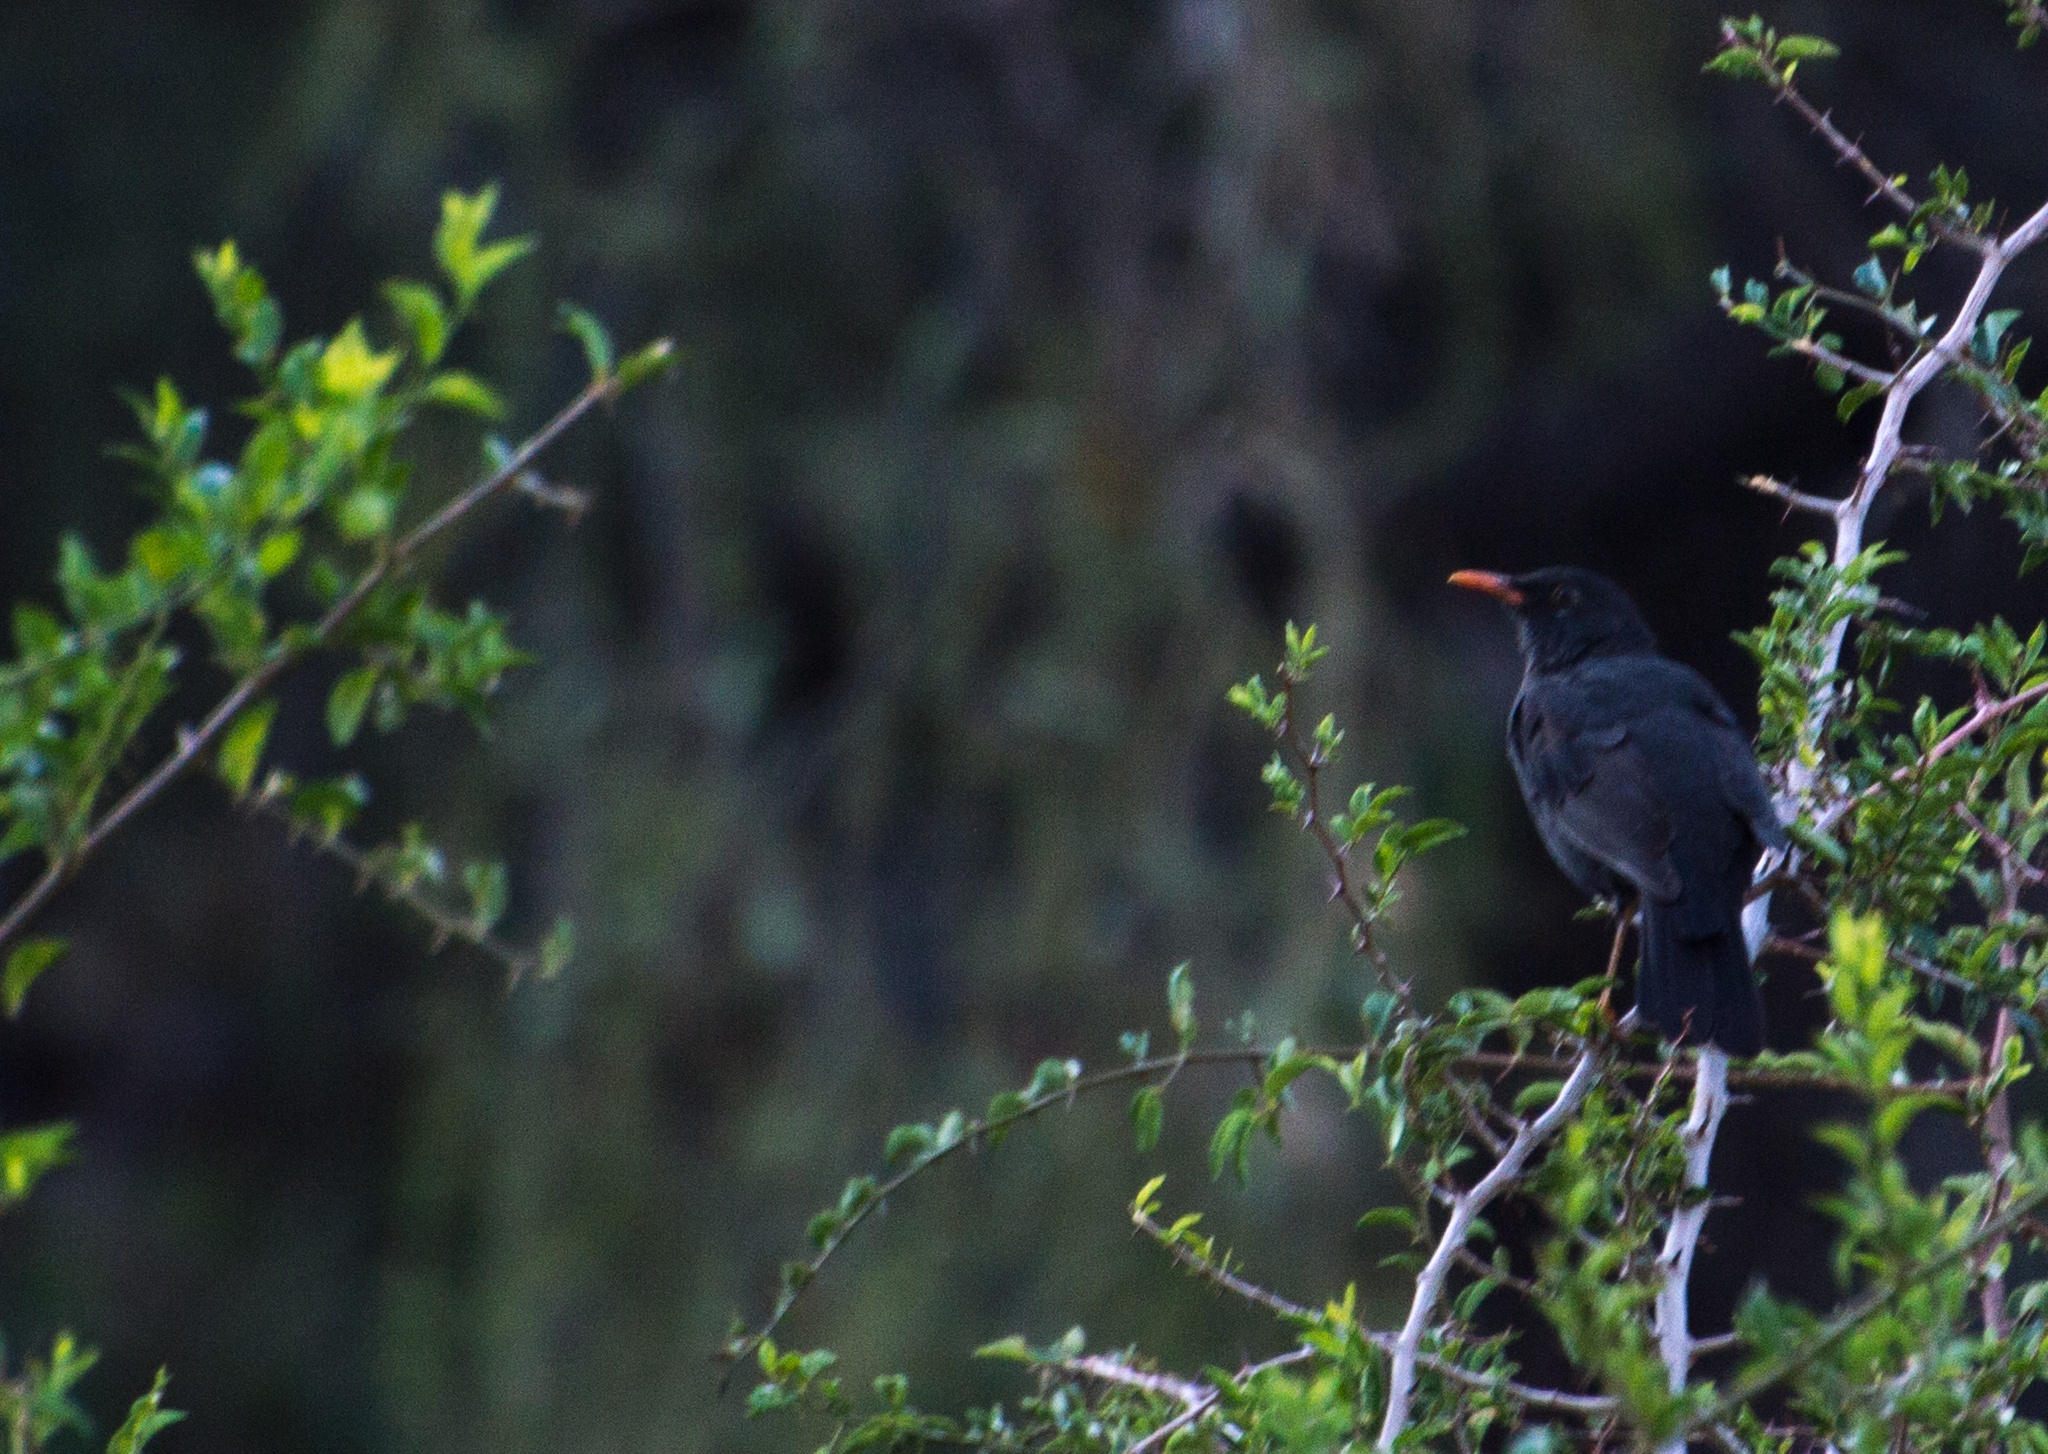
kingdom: Animalia
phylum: Chordata
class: Aves
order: Passeriformes
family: Turdidae
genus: Turdus
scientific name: Turdus chiguanco
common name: Chiguanco thrush
